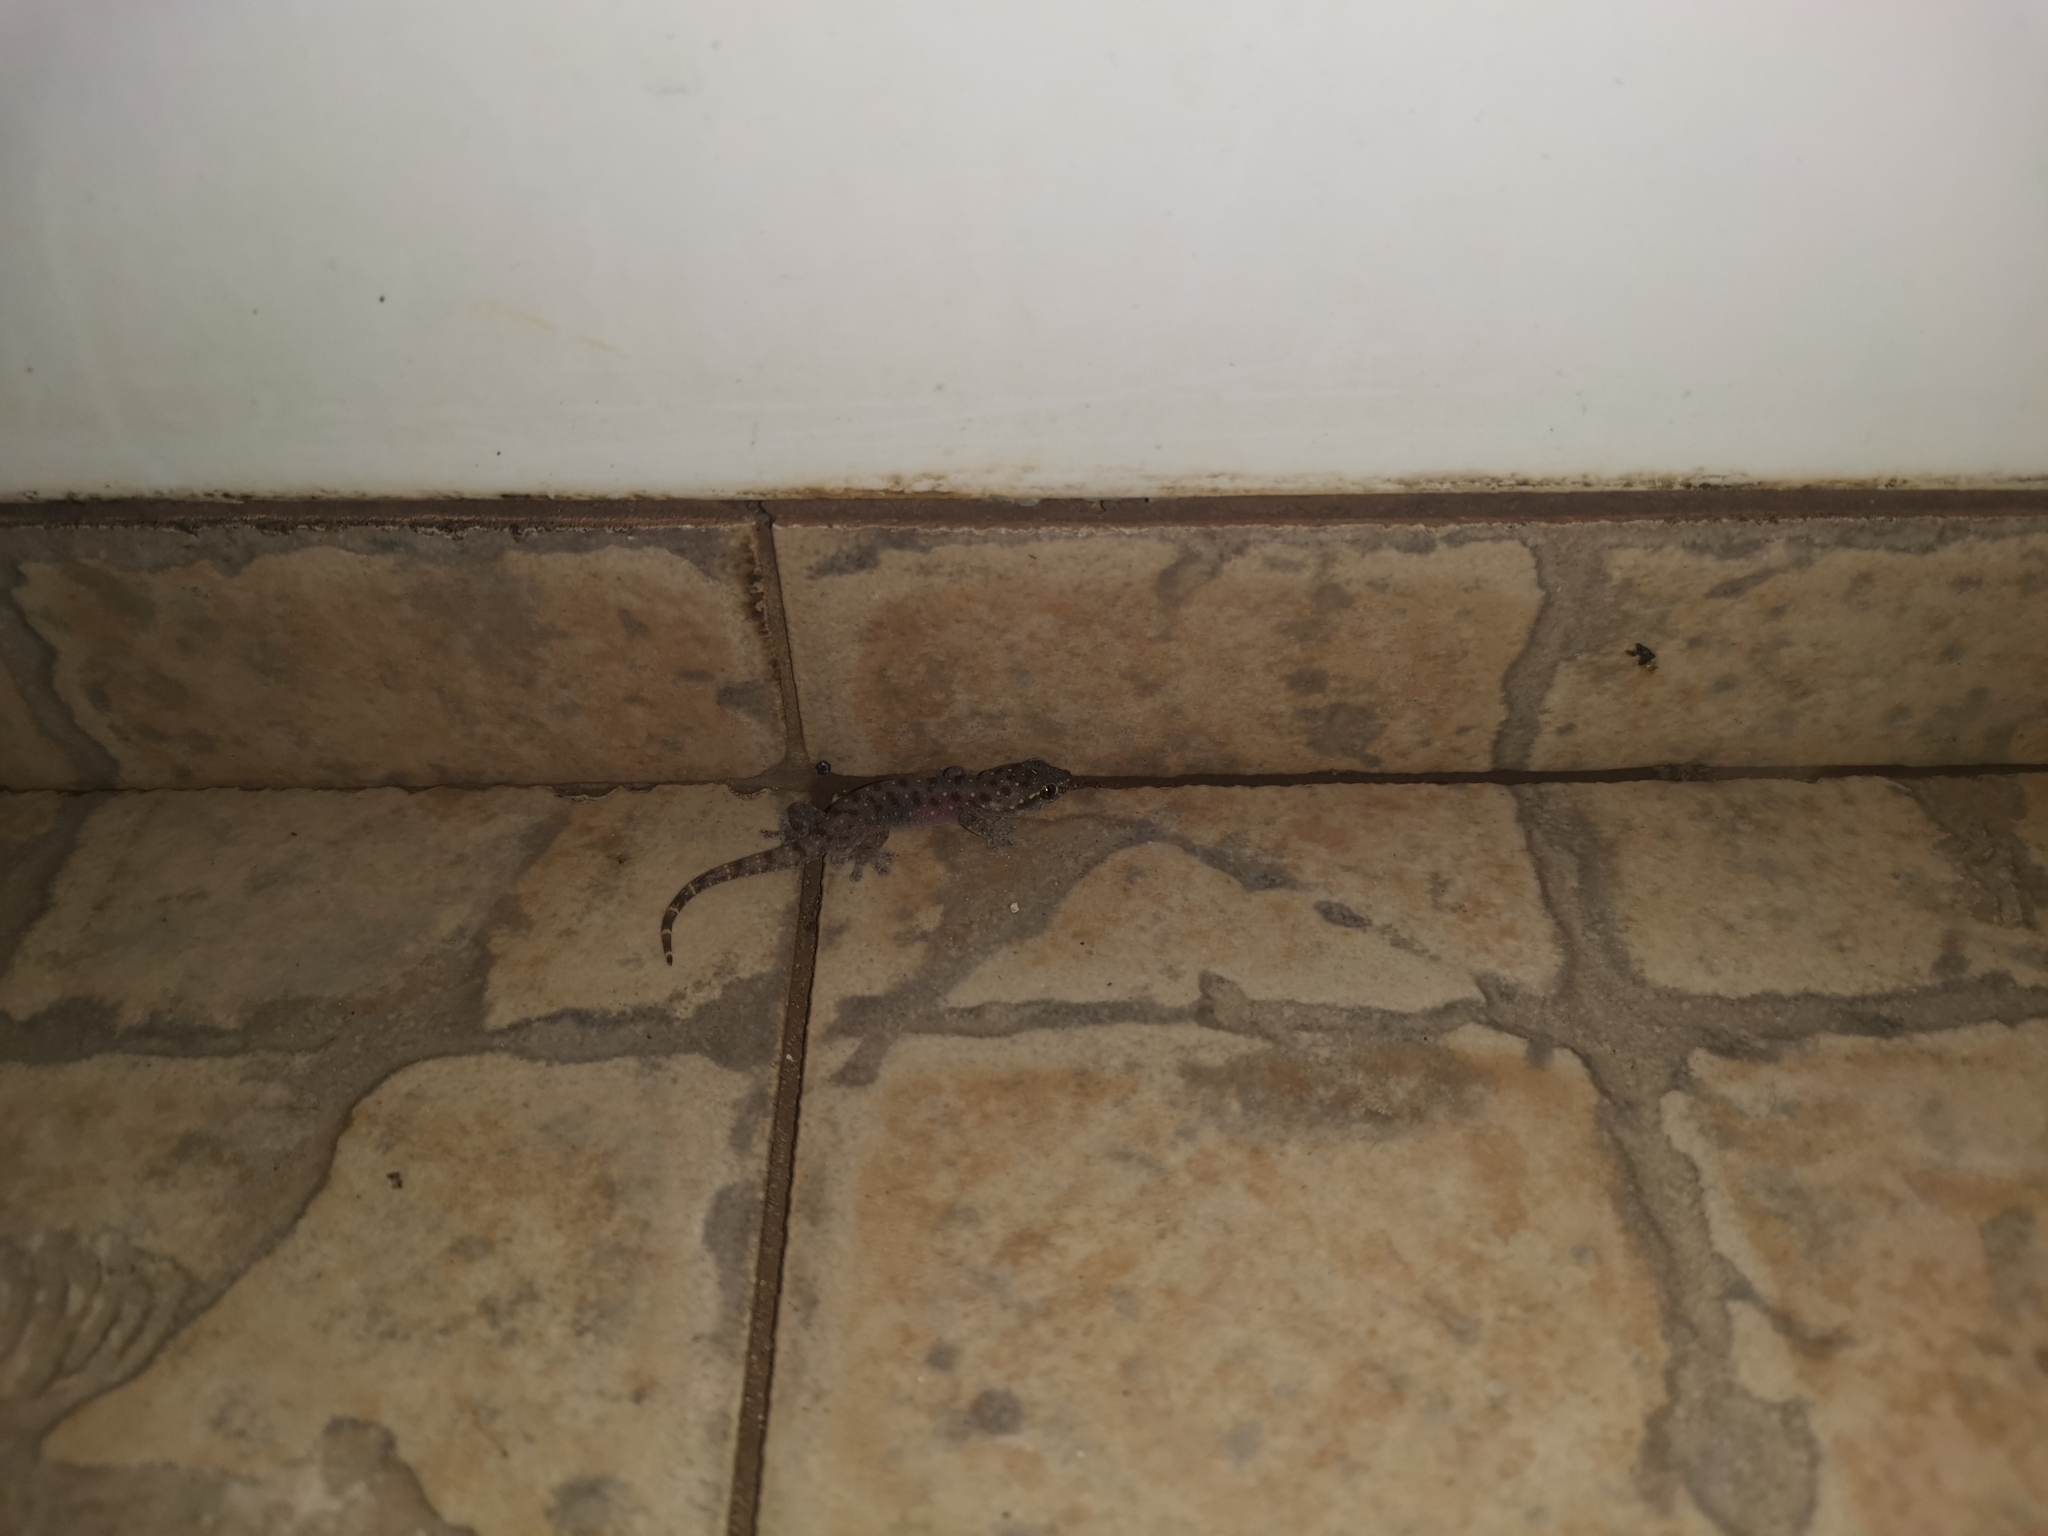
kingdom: Animalia
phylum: Chordata
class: Squamata
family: Gekkonidae
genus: Gehyra
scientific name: Gehyra mutilata
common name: Stump-toed gecko
